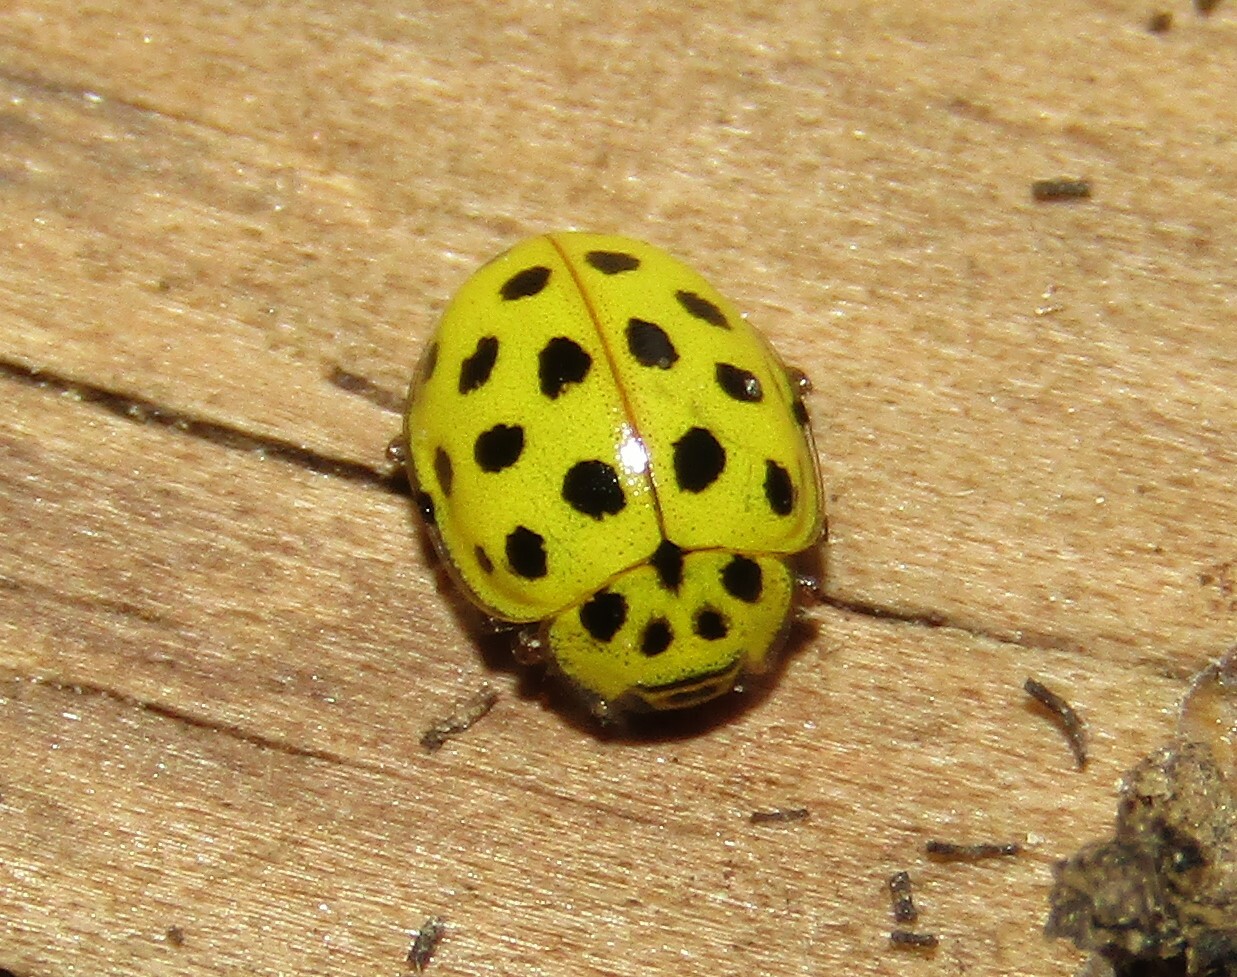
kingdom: Animalia
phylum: Arthropoda
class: Insecta
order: Coleoptera
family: Coccinellidae
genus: Psyllobora
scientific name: Psyllobora vigintiduopunctata
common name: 22-spot ladybird
